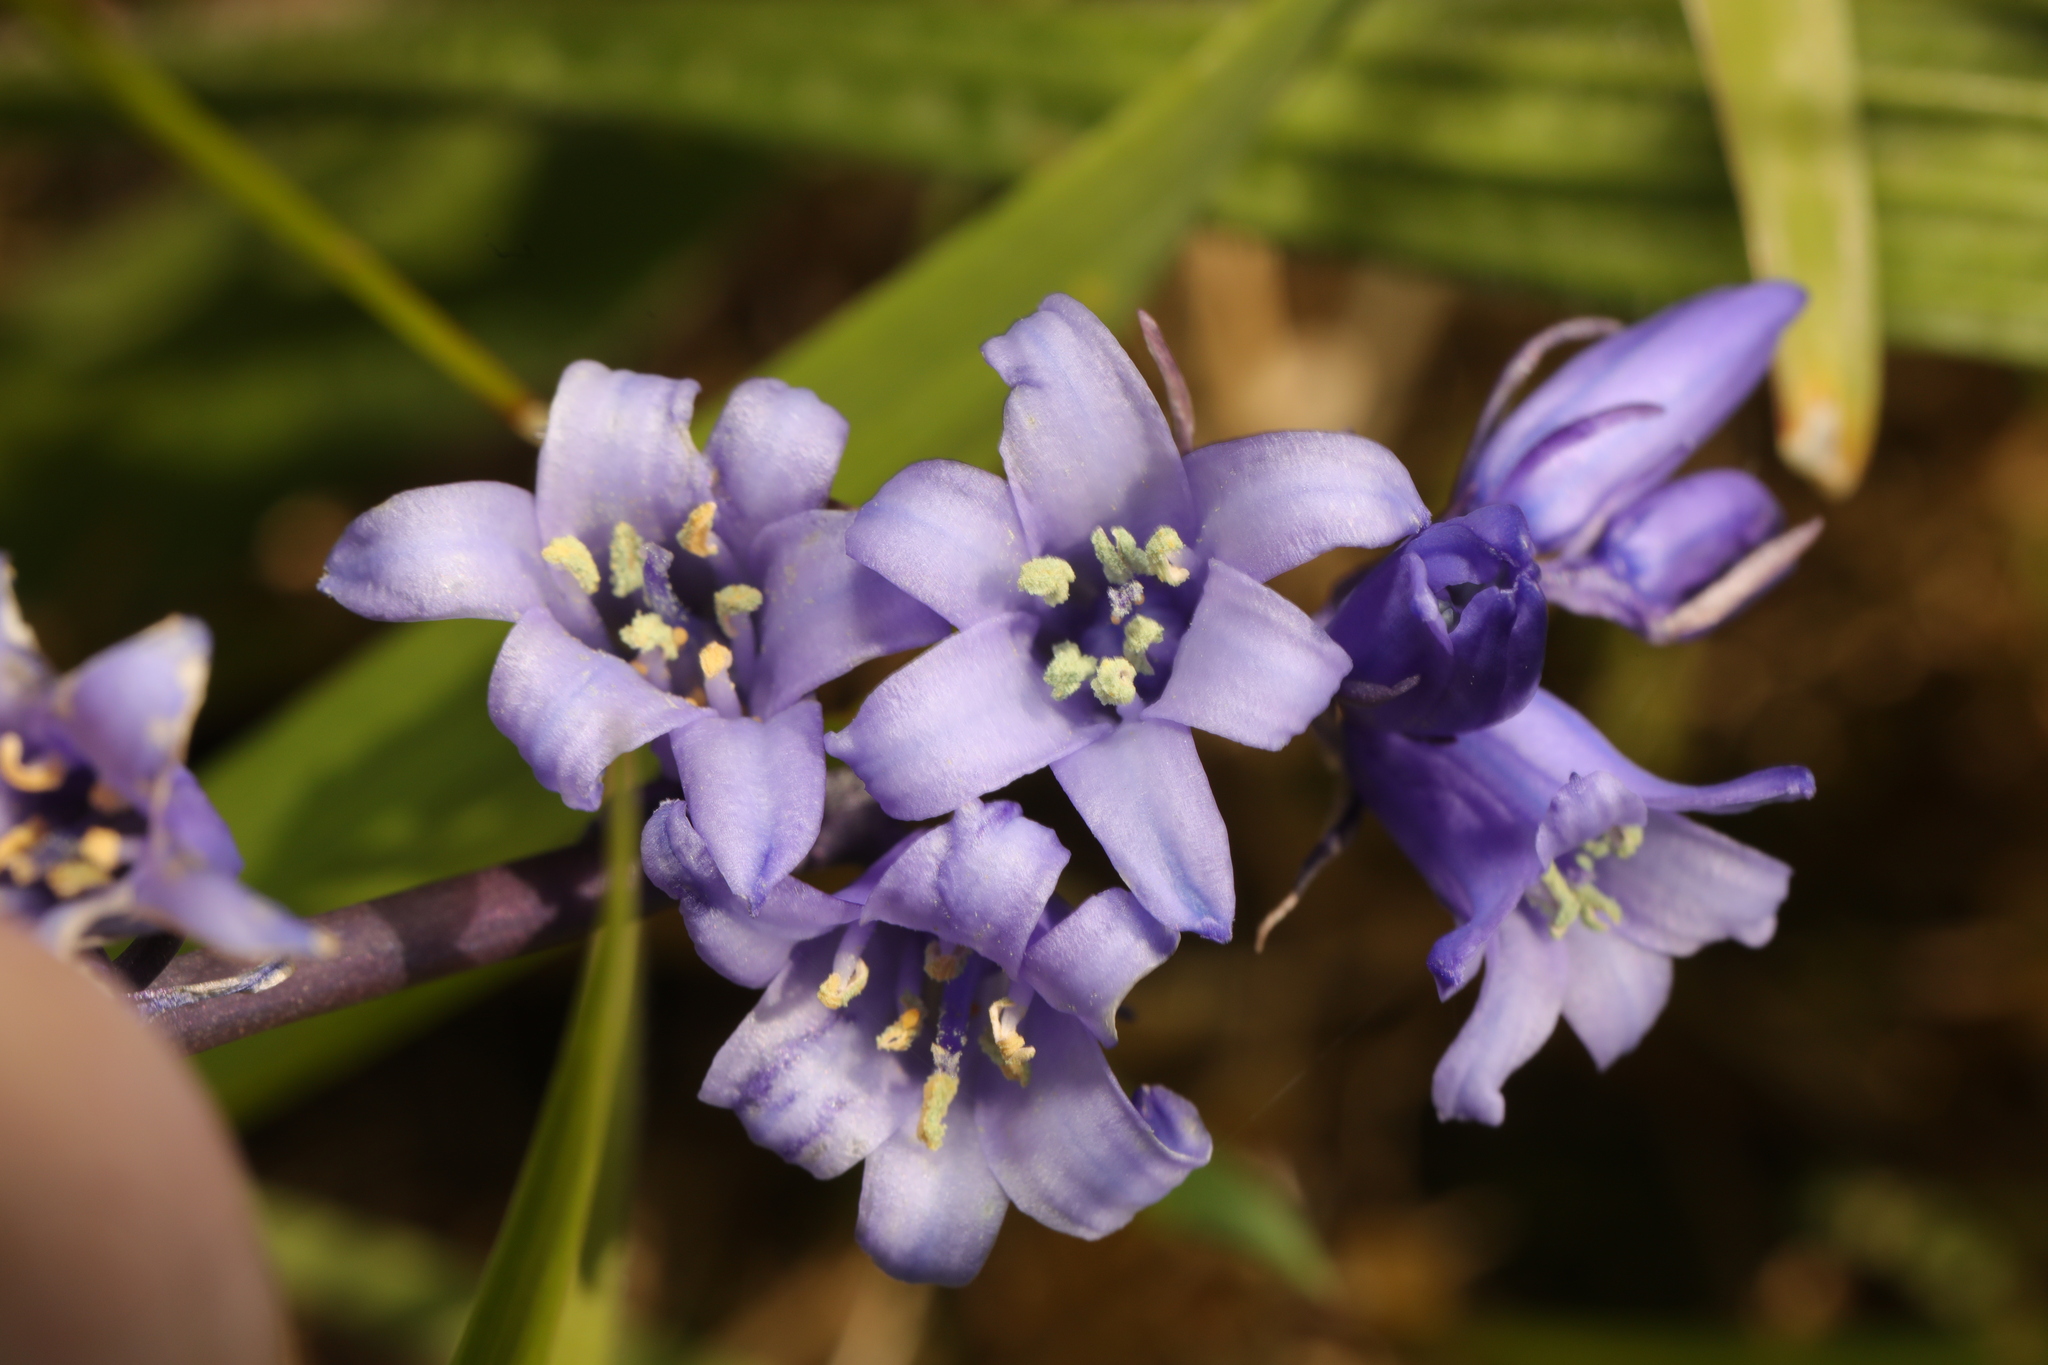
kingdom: Plantae
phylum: Tracheophyta
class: Liliopsida
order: Asparagales
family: Asparagaceae
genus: Hyacinthoides
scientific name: Hyacinthoides non-scripta
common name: Bluebell
